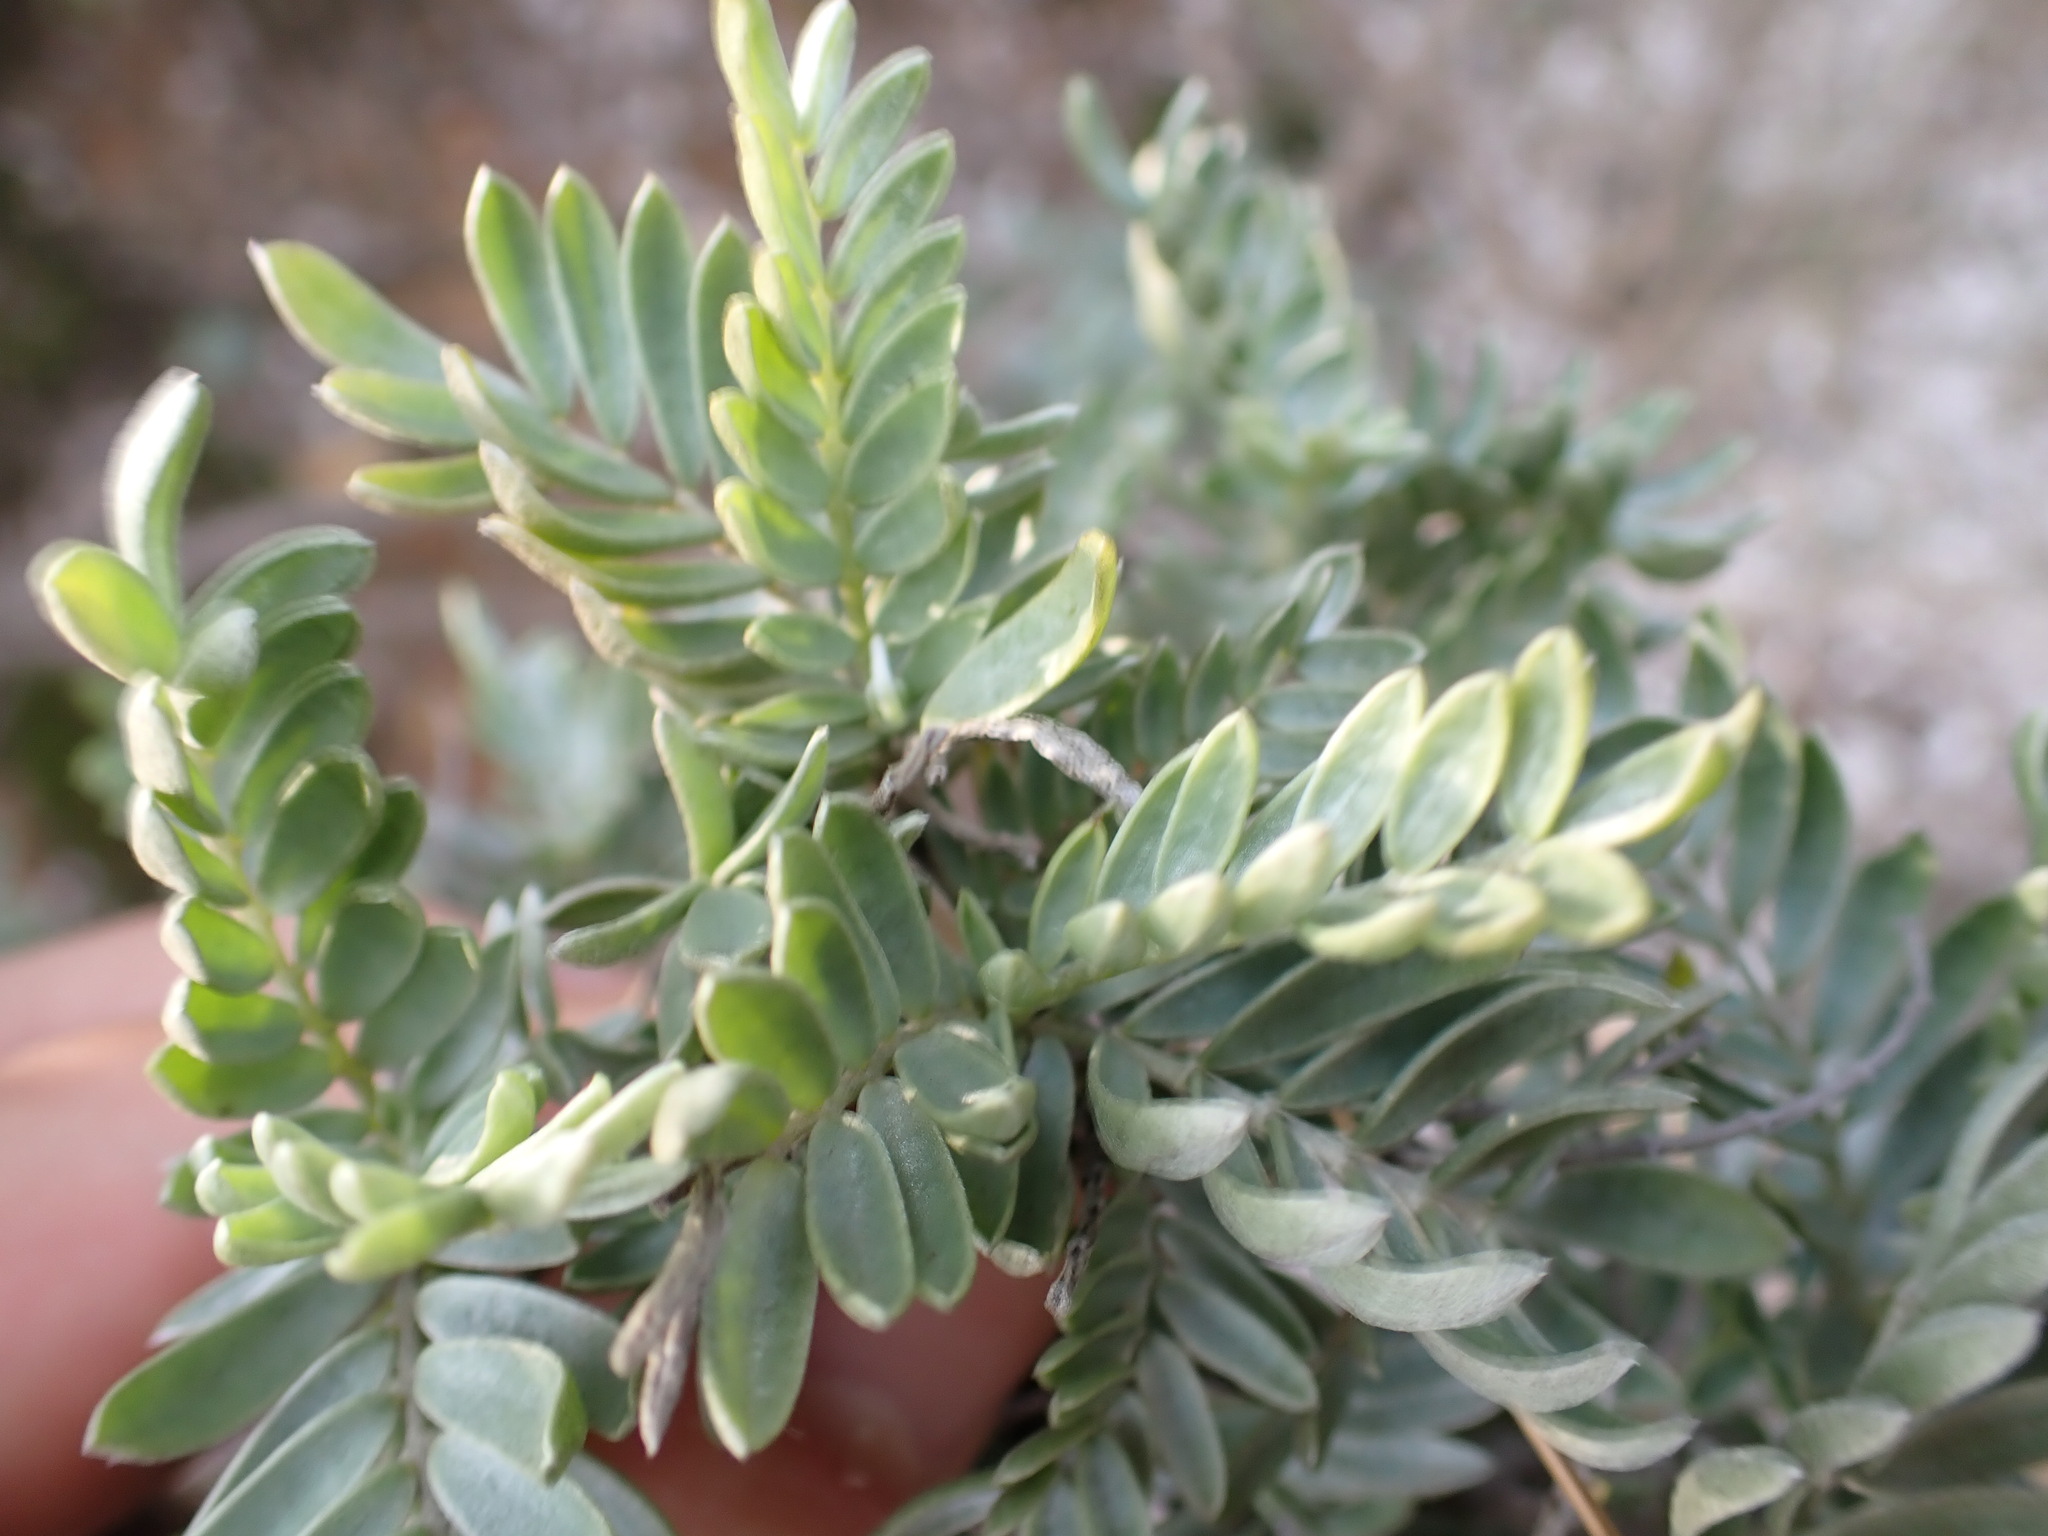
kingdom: Plantae
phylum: Tracheophyta
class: Magnoliopsida
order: Fabales
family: Fabaceae
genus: Anthyllis
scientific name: Anthyllis barba-jovis
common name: Jupiter's-beard
